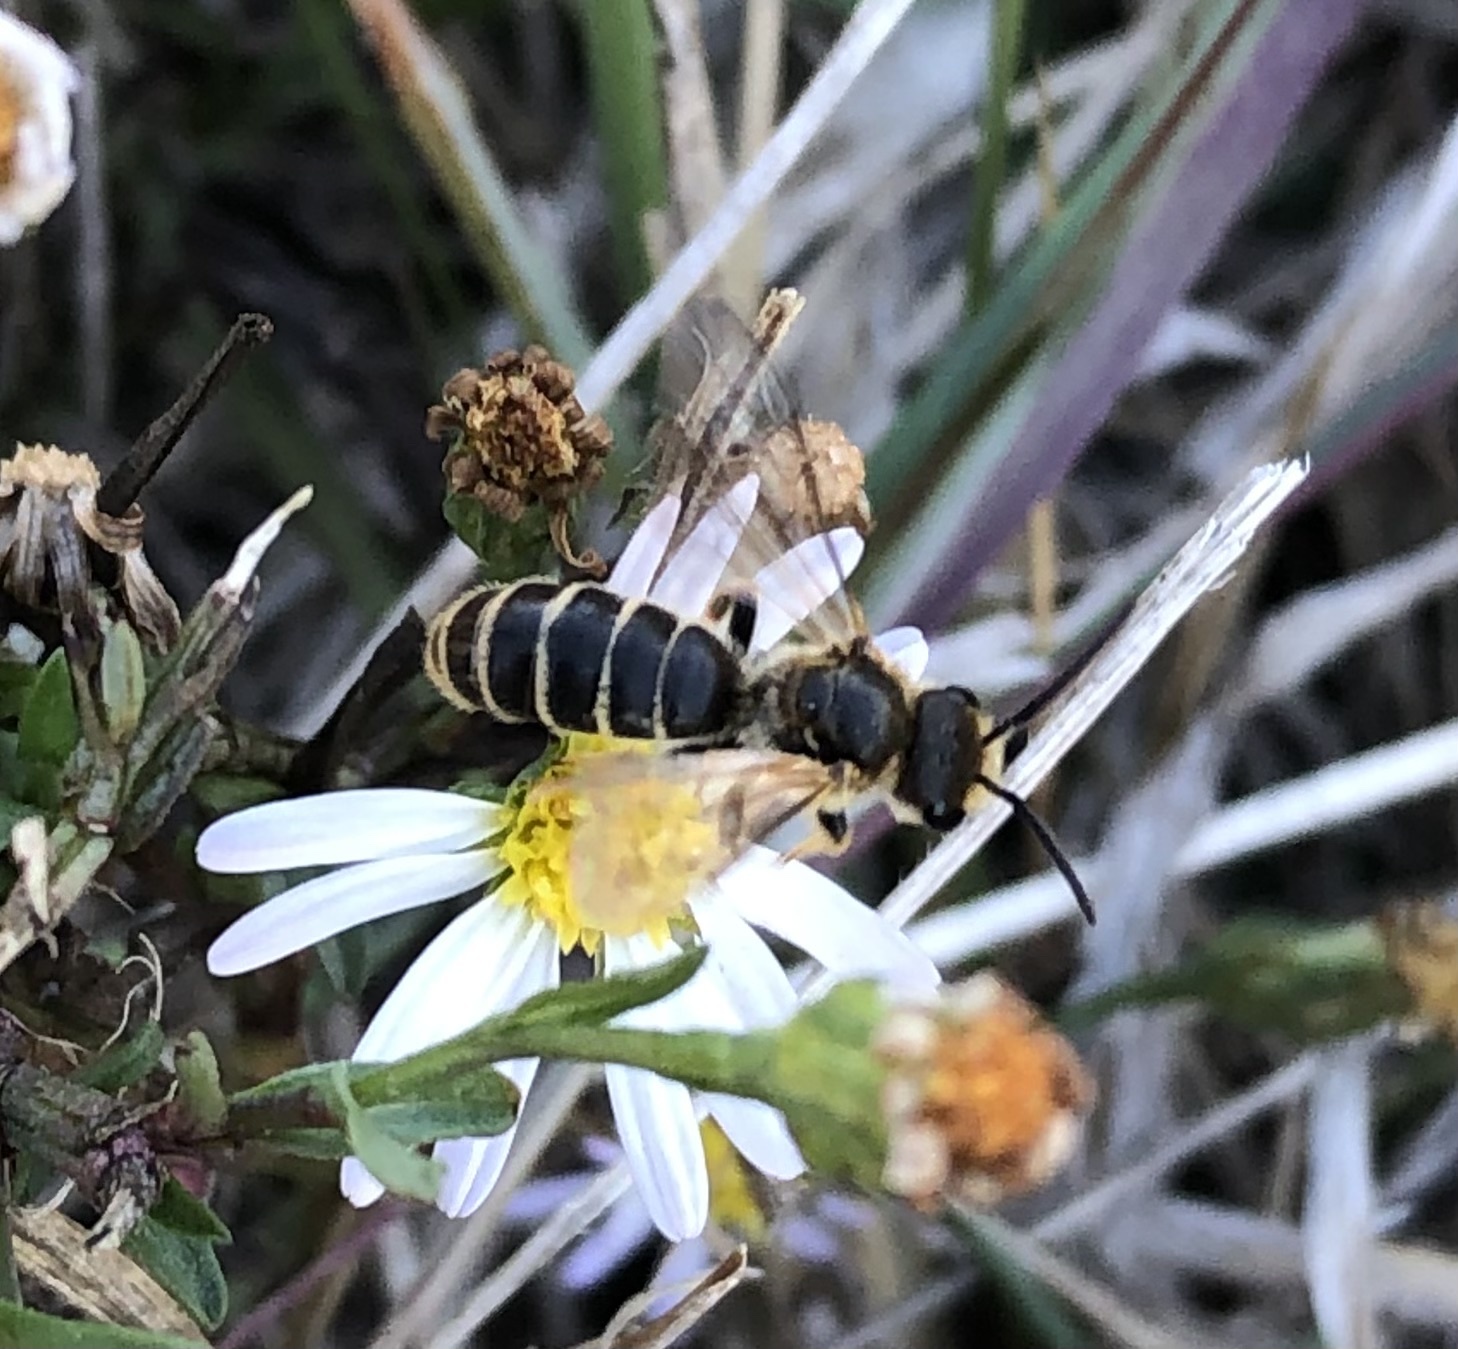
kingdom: Animalia
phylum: Arthropoda
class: Insecta
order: Hymenoptera
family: Halictidae
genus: Halictus
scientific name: Halictus ligatus
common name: Ligated furrow bee
